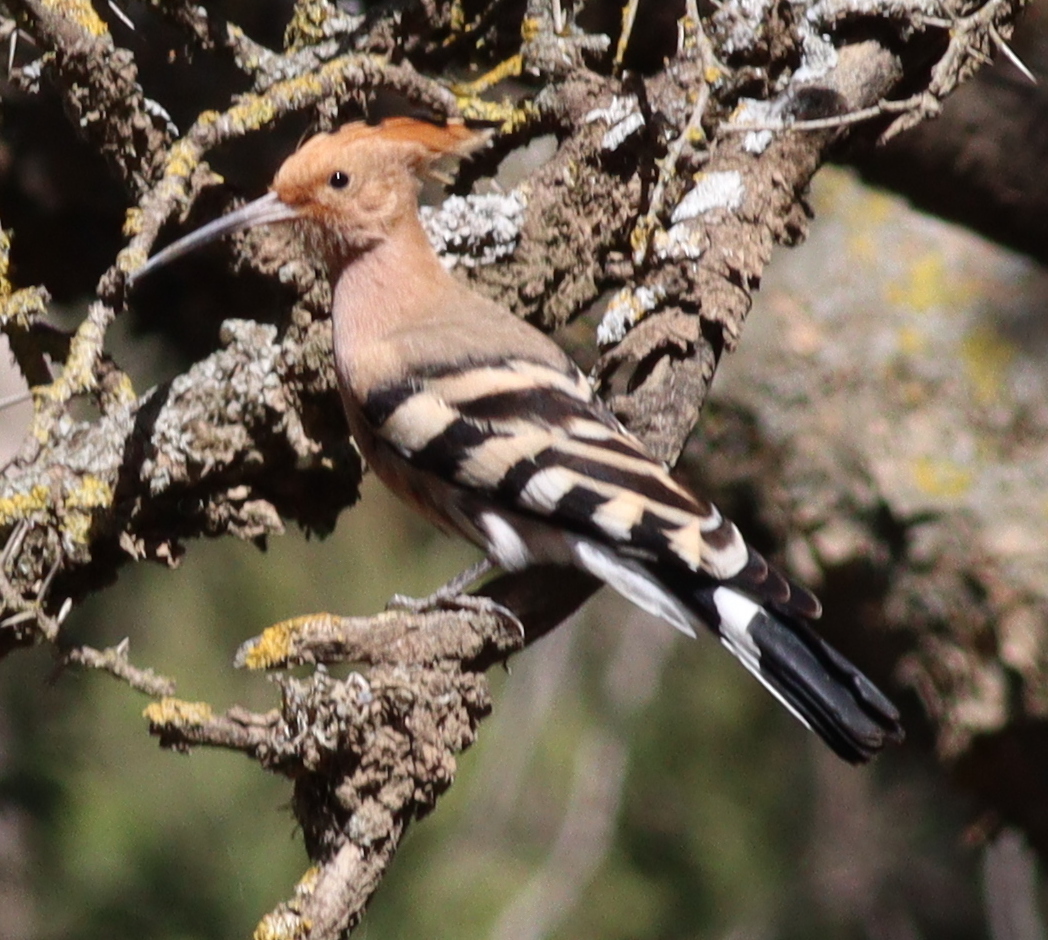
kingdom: Animalia
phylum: Chordata
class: Aves
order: Bucerotiformes
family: Upupidae
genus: Upupa
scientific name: Upupa epops
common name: Eurasian hoopoe
